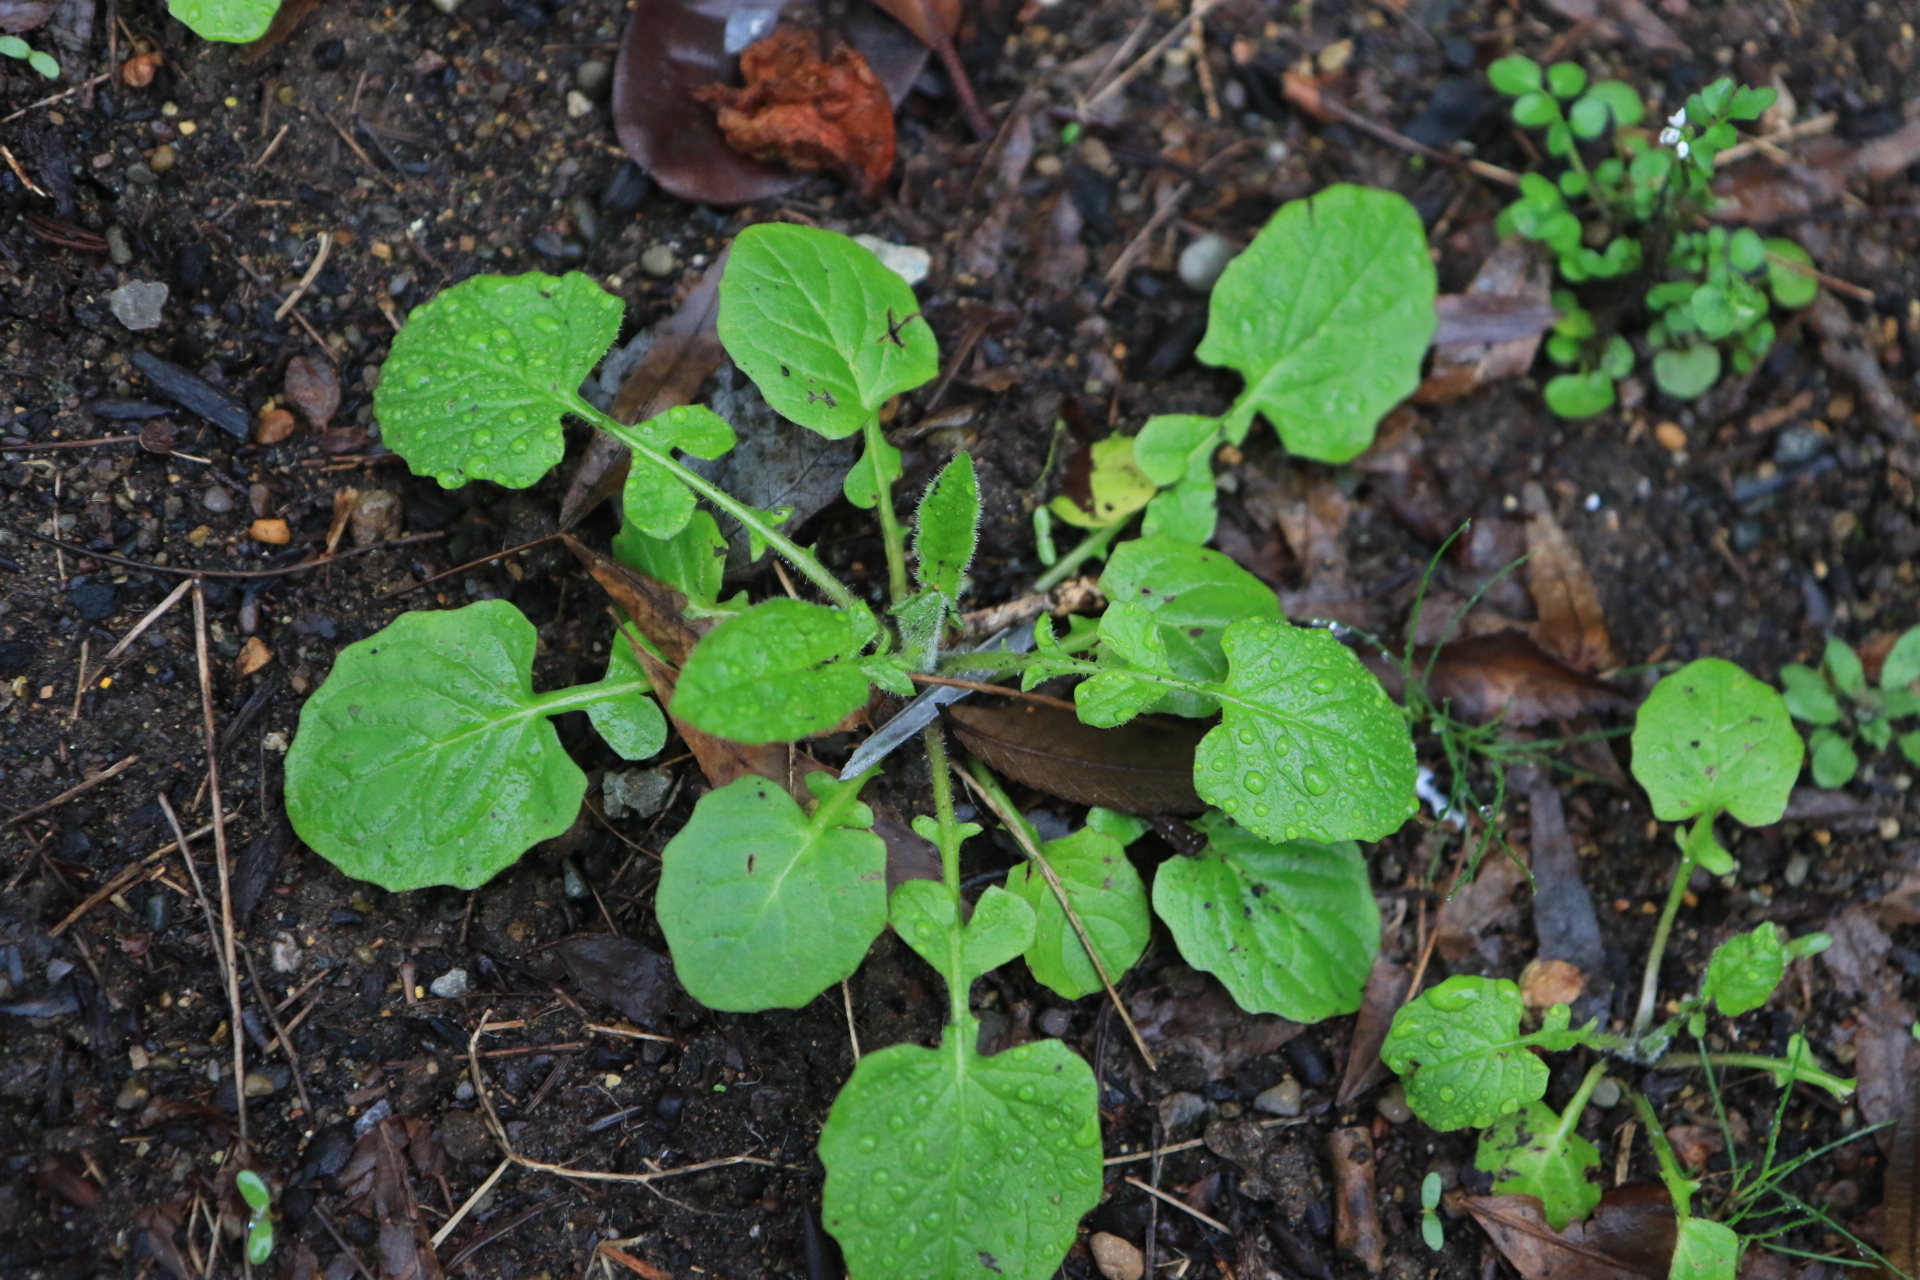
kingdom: Plantae
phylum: Tracheophyta
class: Magnoliopsida
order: Asterales
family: Asteraceae
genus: Lapsana
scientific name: Lapsana communis
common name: Nipplewort
